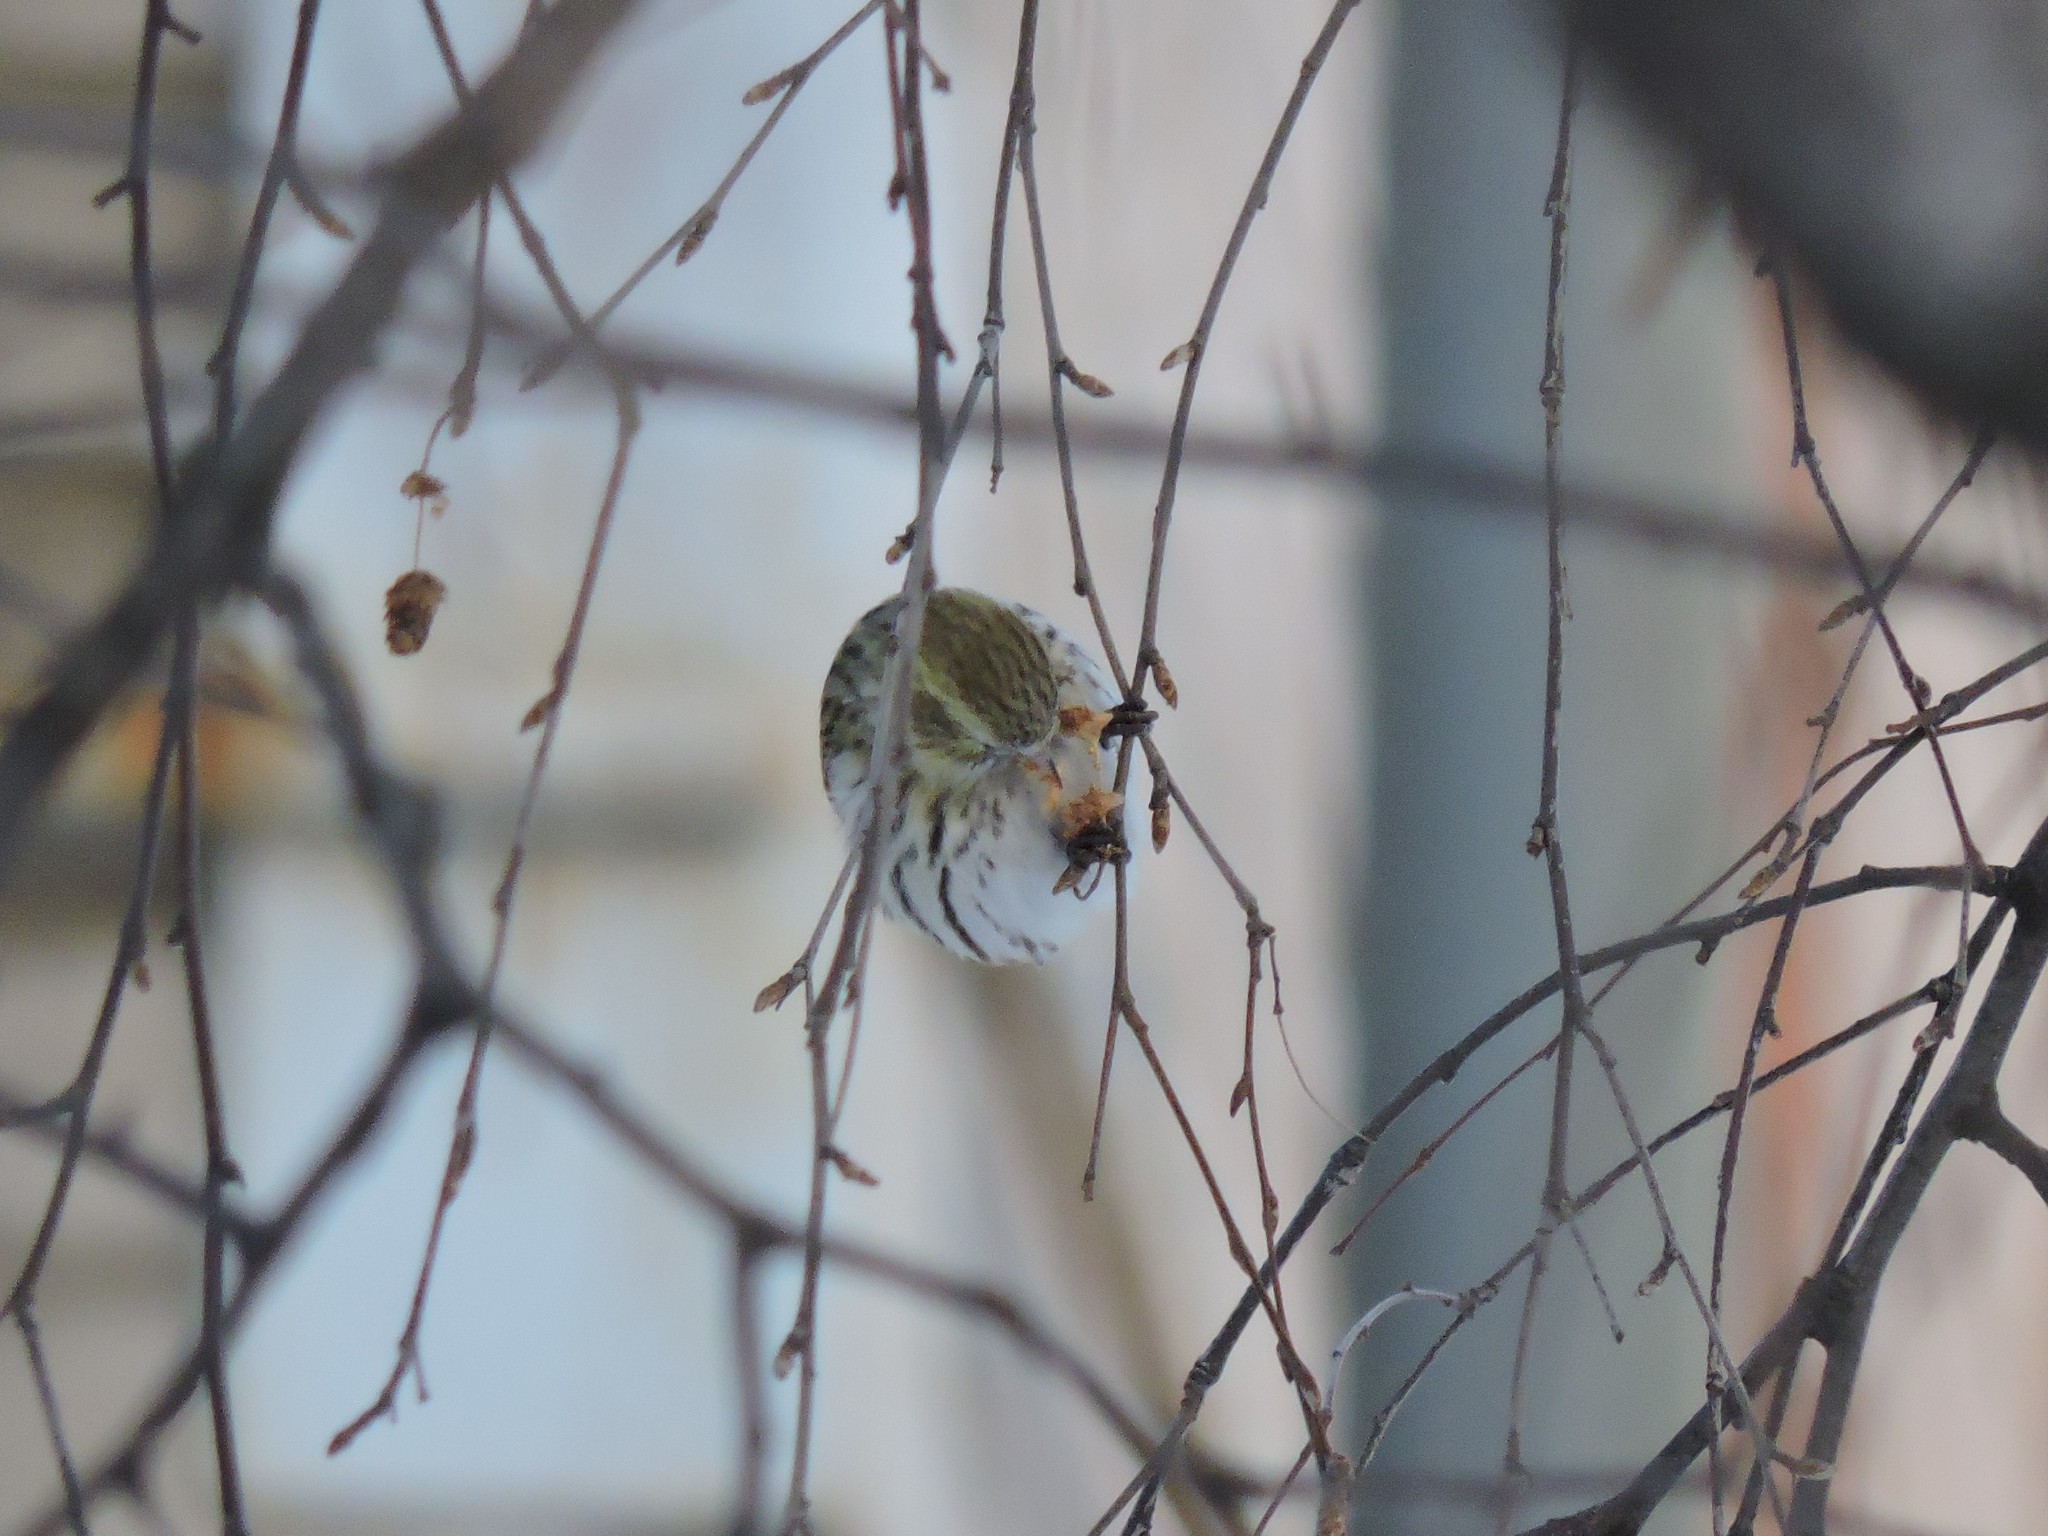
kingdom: Animalia
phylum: Chordata
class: Aves
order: Passeriformes
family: Fringillidae
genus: Spinus
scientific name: Spinus spinus
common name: Eurasian siskin
